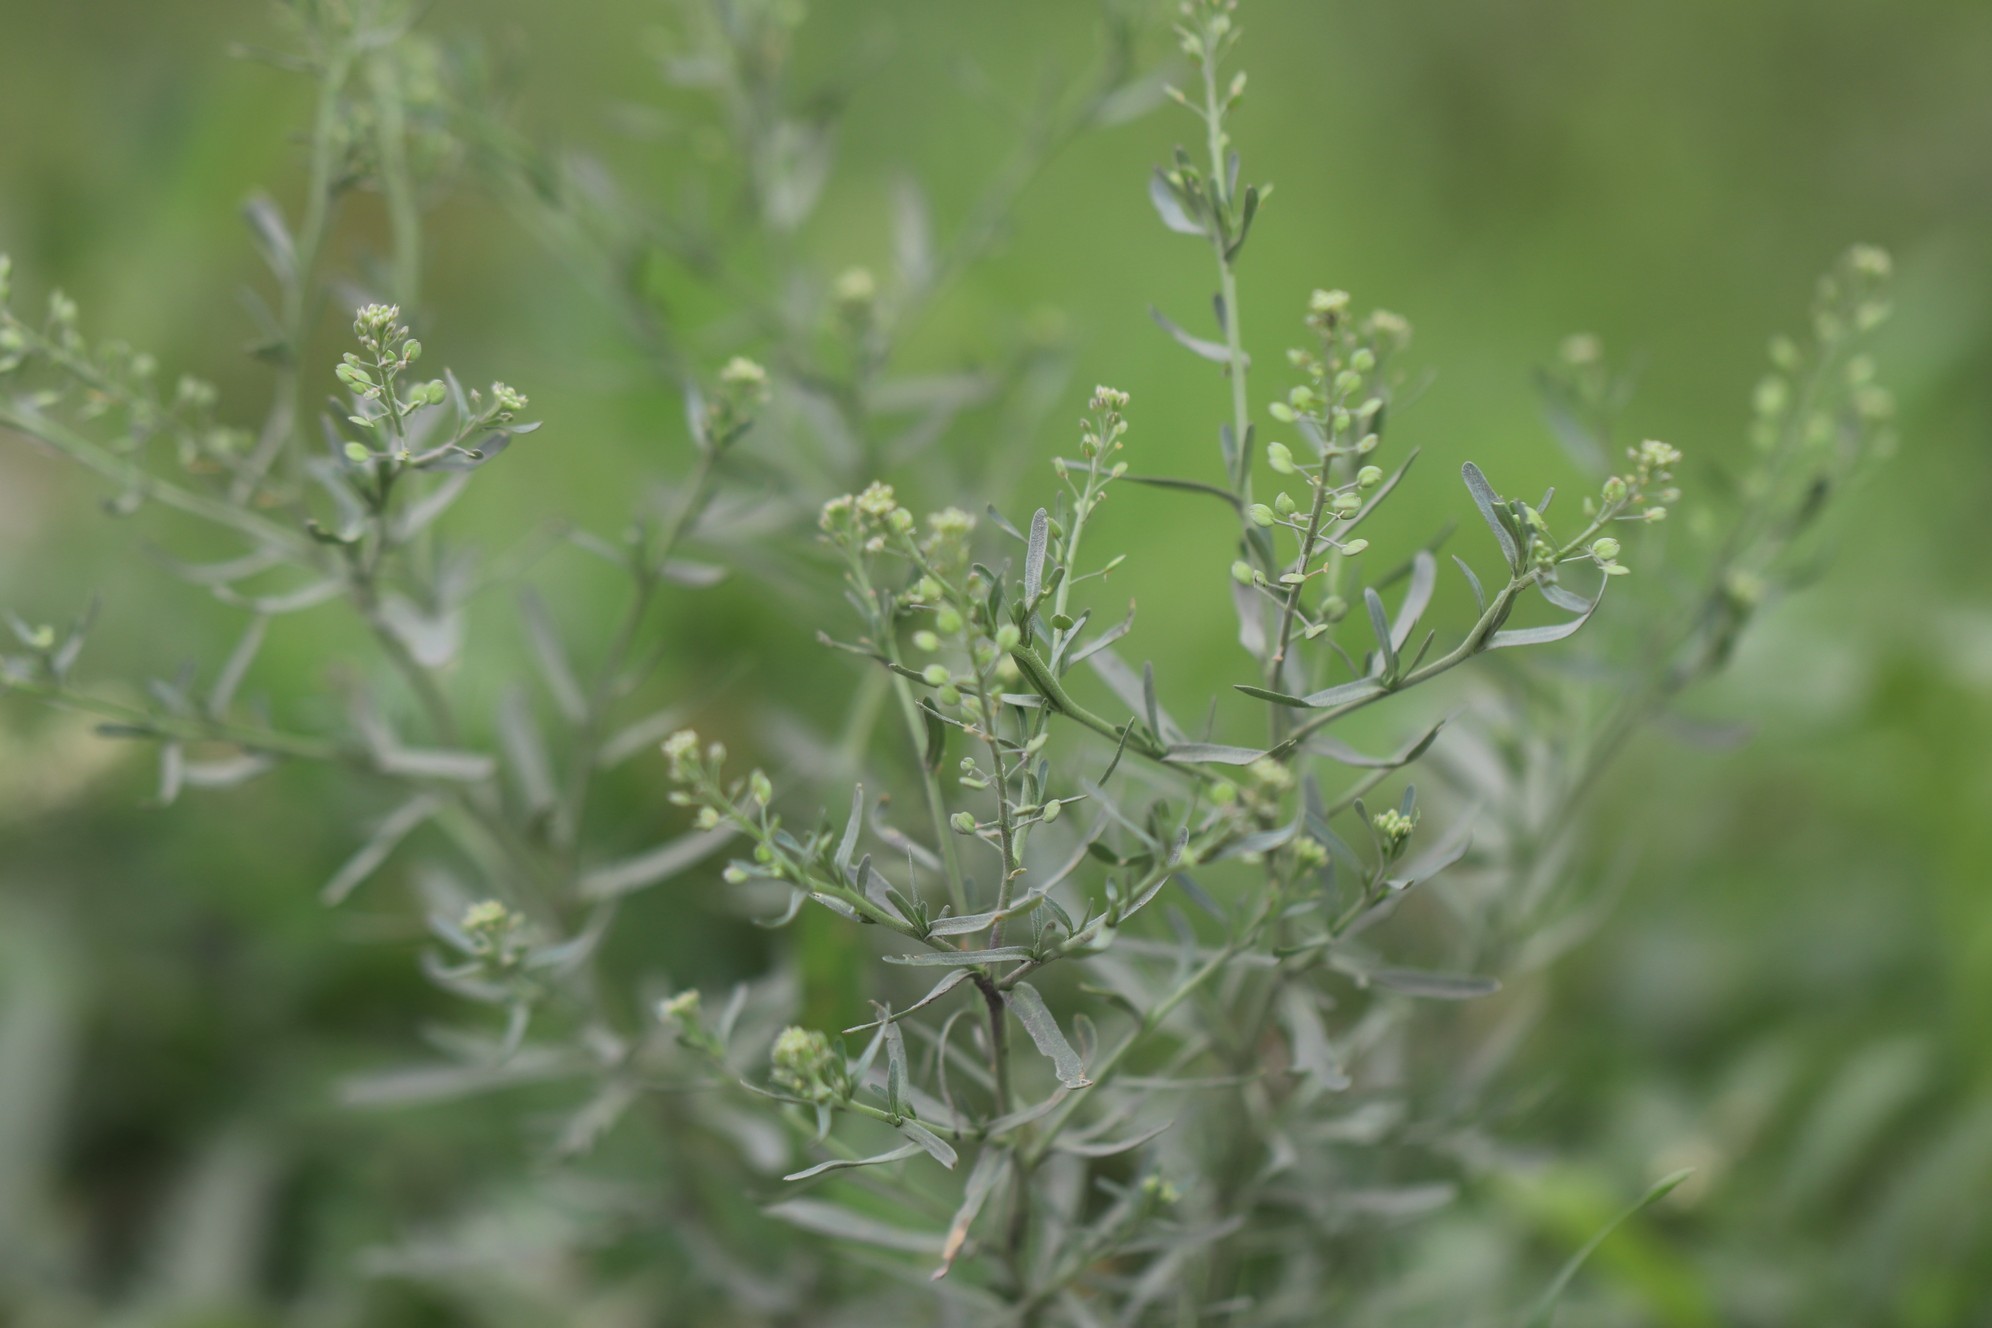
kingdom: Plantae
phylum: Tracheophyta
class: Magnoliopsida
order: Brassicales
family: Brassicaceae
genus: Lepidium
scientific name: Lepidium ruderale
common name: Narrow-leaved pepperwort
